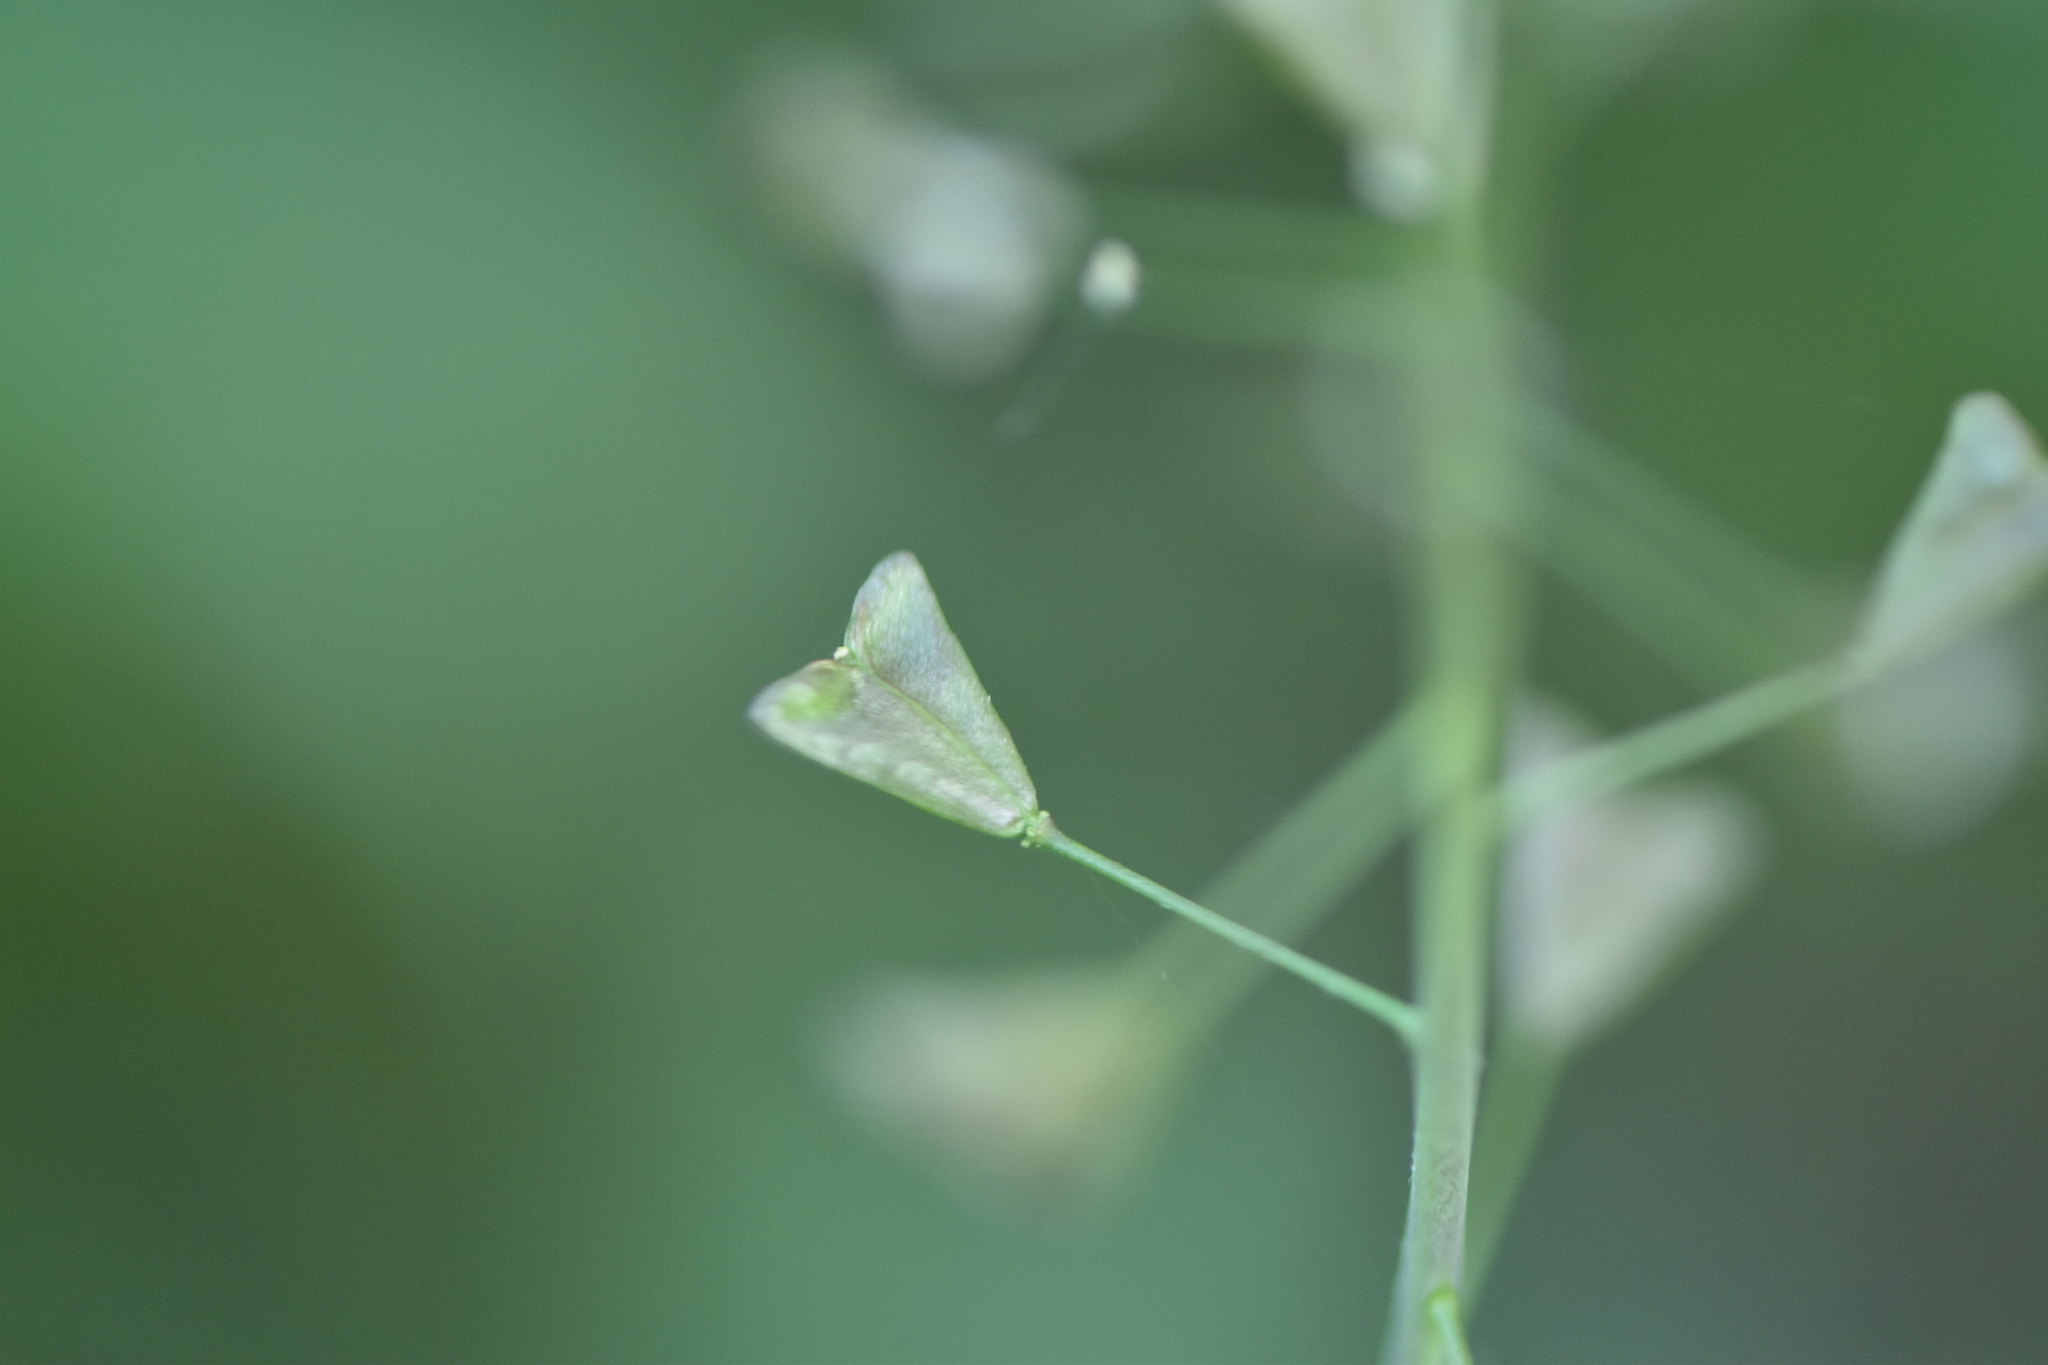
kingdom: Plantae
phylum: Tracheophyta
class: Magnoliopsida
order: Brassicales
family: Brassicaceae
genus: Capsella
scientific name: Capsella bursa-pastoris
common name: Shepherd's purse
